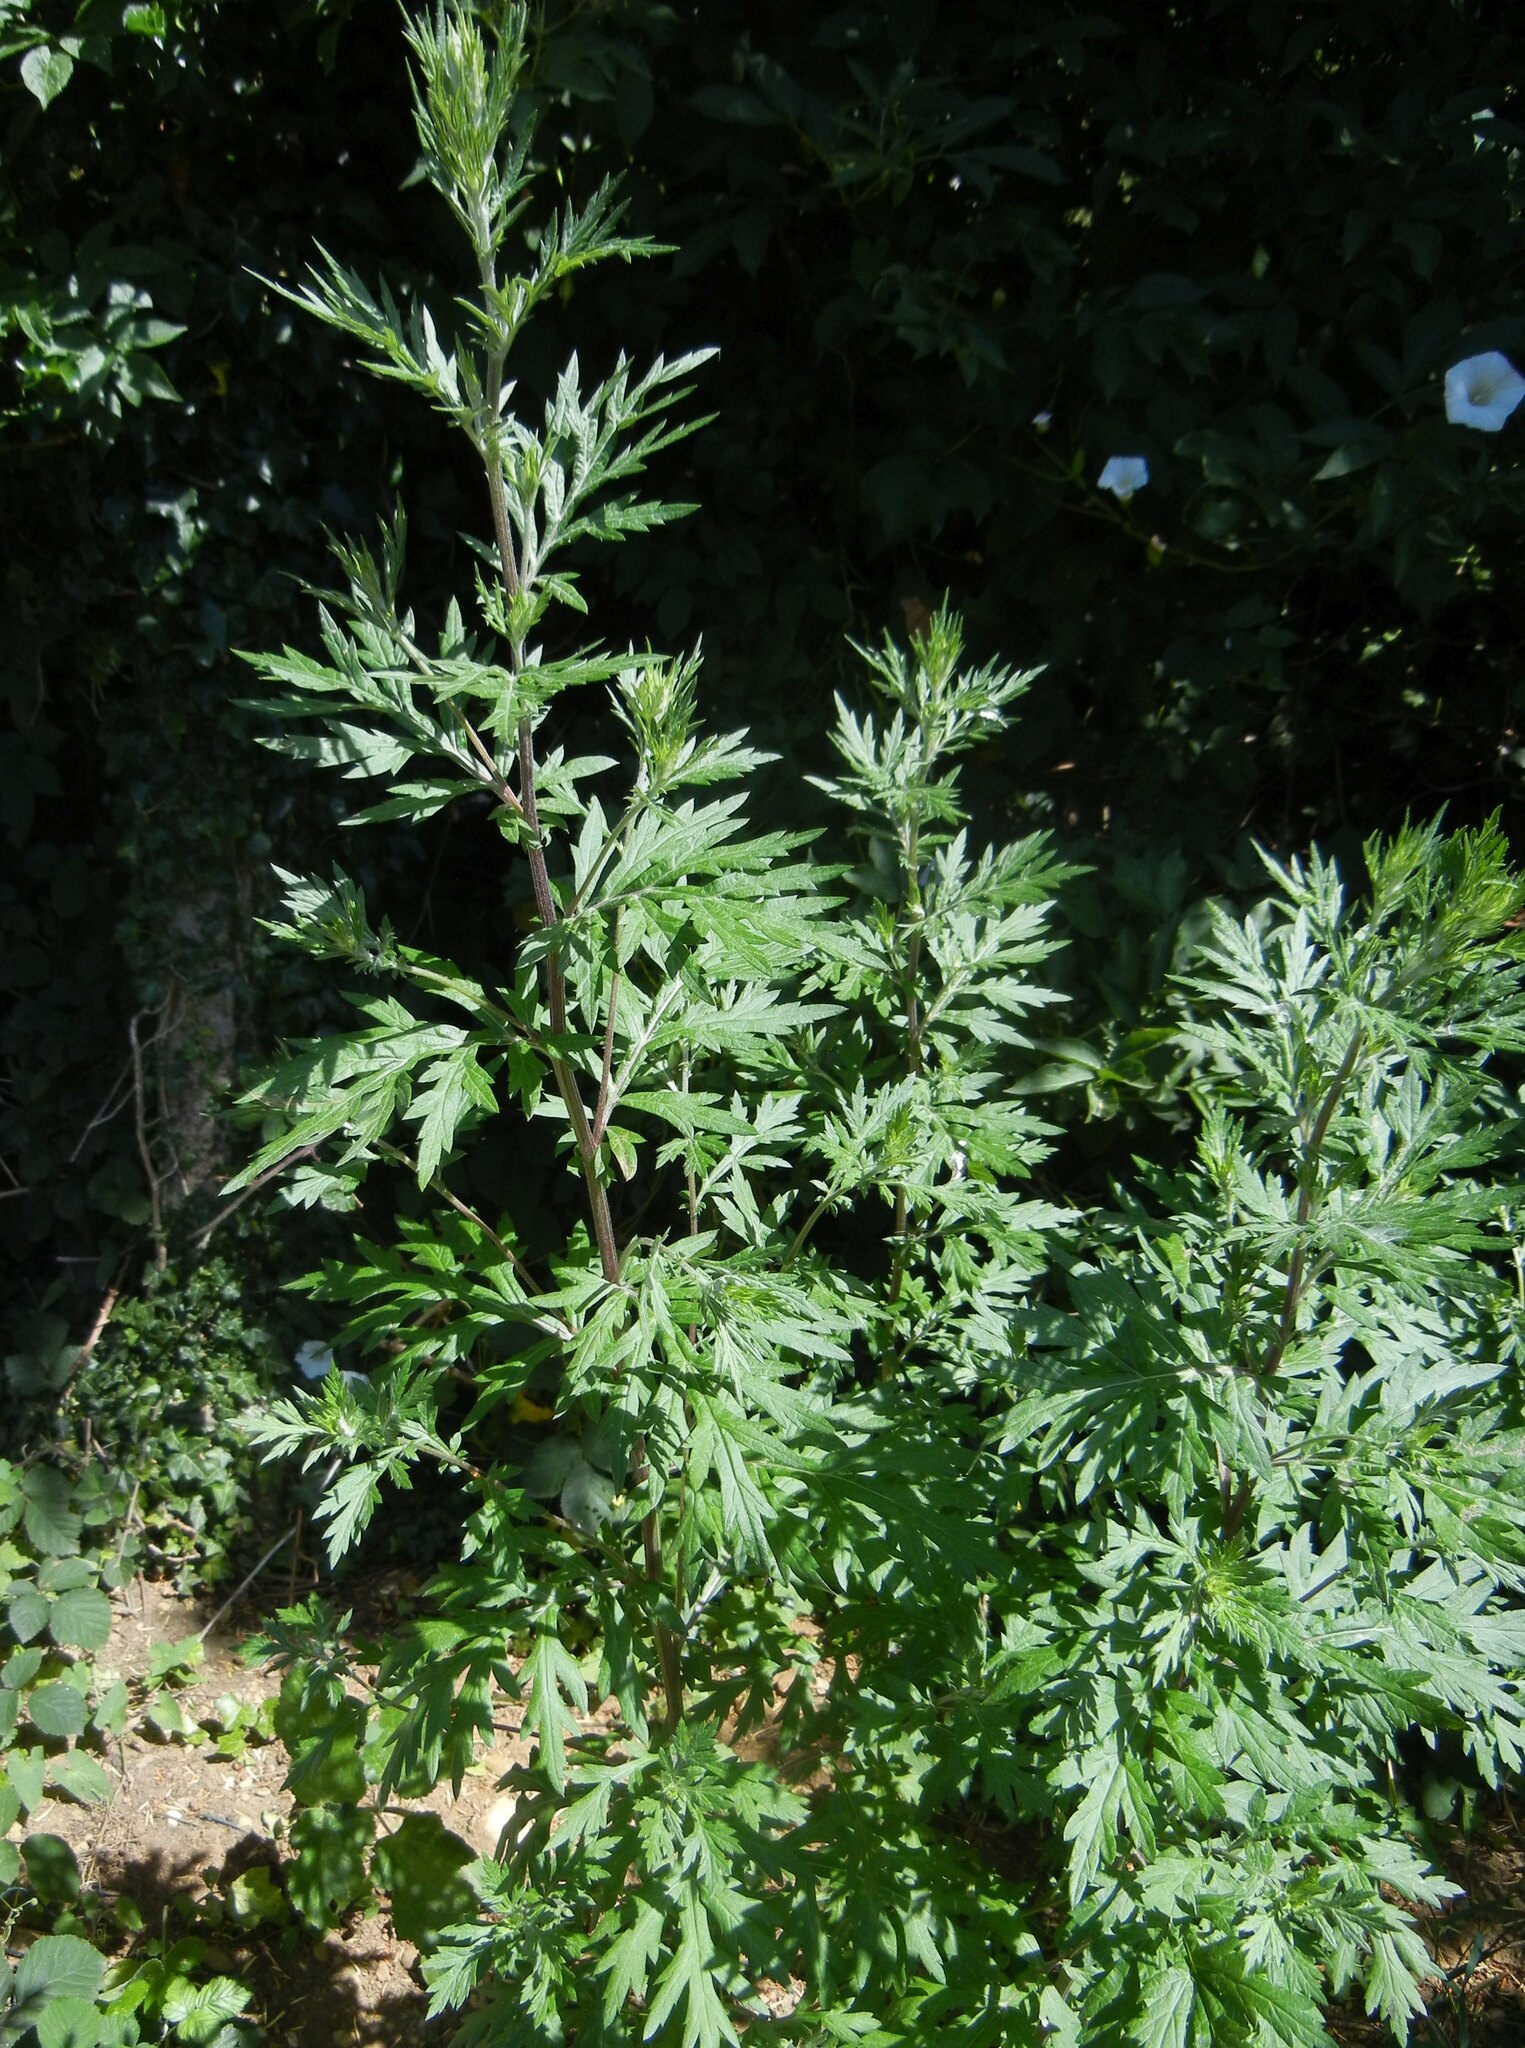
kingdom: Plantae
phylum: Tracheophyta
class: Magnoliopsida
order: Asterales
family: Asteraceae
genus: Artemisia
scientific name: Artemisia vulgaris
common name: Mugwort
